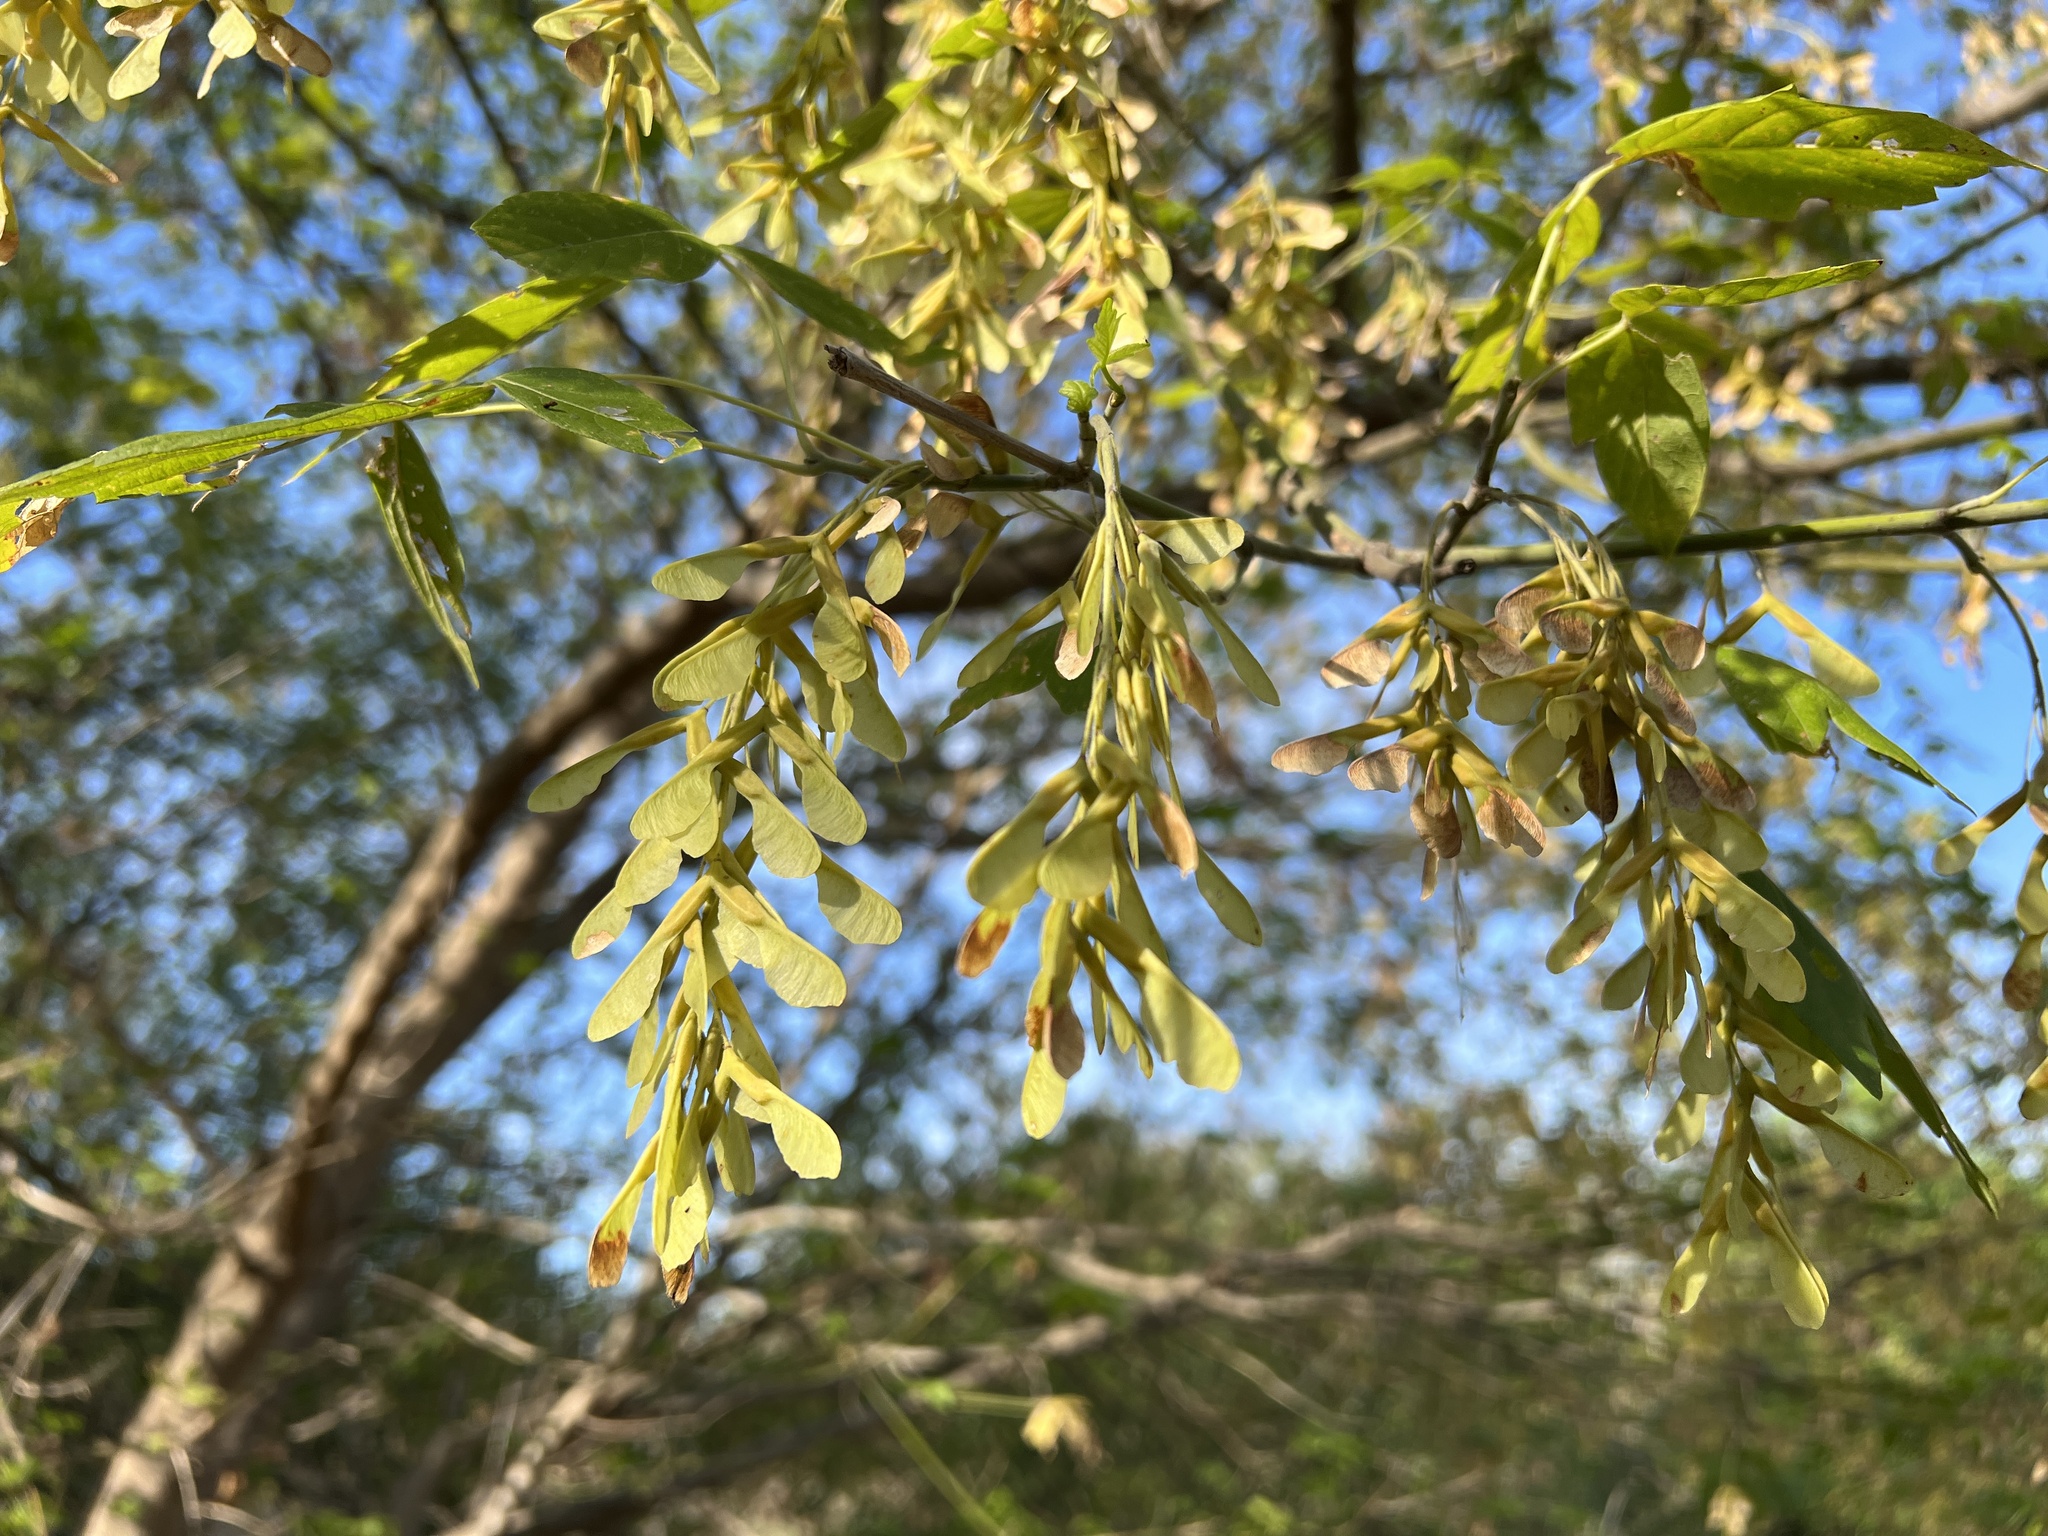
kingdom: Plantae
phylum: Tracheophyta
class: Magnoliopsida
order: Sapindales
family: Sapindaceae
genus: Acer
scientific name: Acer negundo
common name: Ashleaf maple
